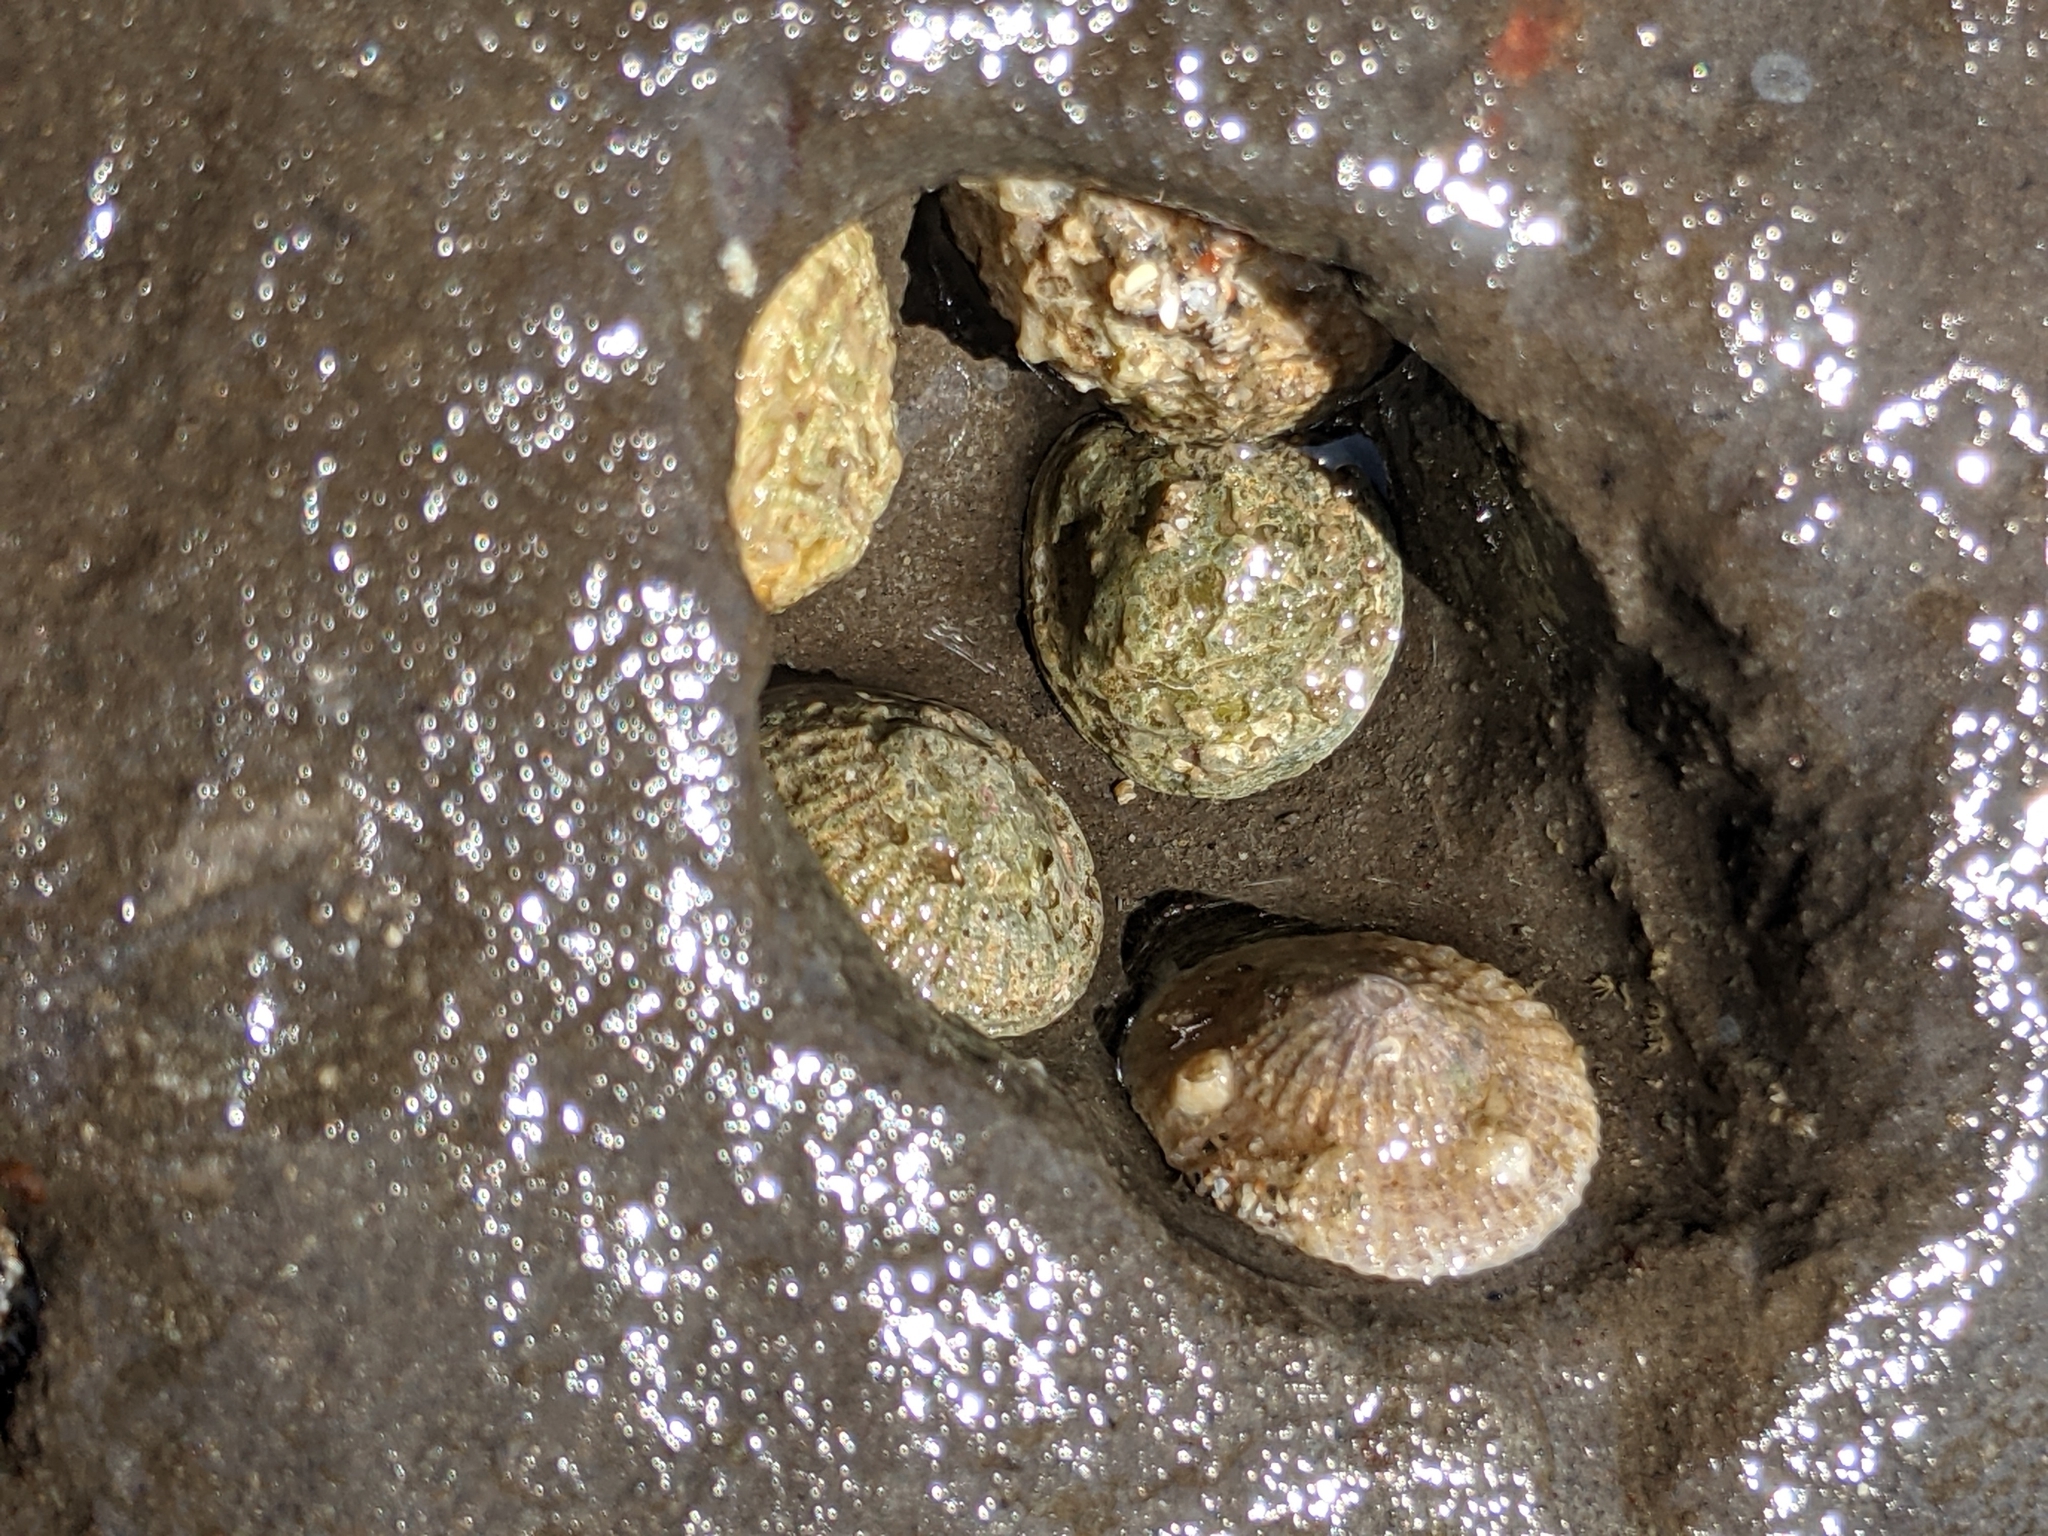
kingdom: Animalia
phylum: Mollusca
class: Gastropoda
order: Ellobiida
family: Trimusculidae
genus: Trimusculus
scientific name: Trimusculus reticulatus
